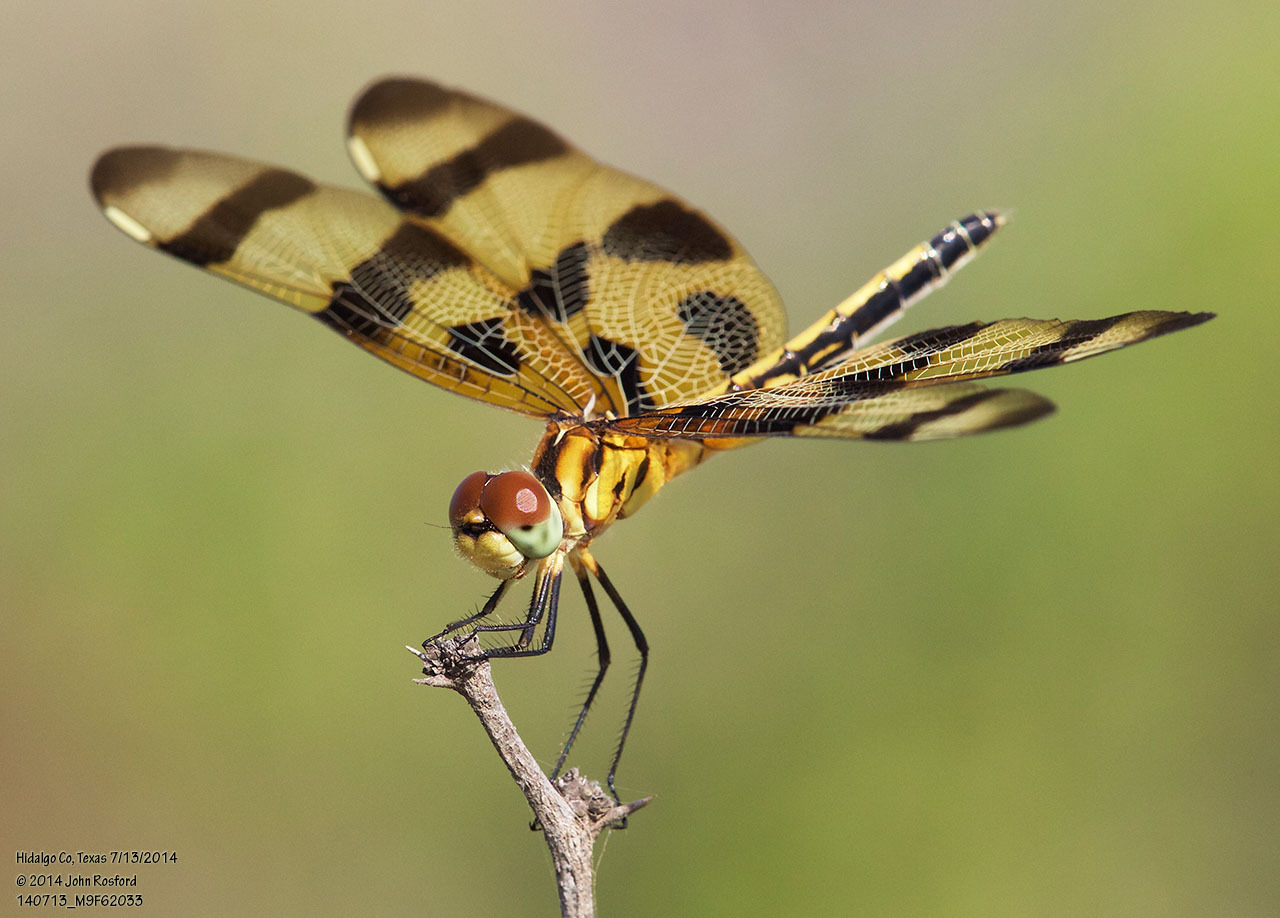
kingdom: Animalia
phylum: Arthropoda
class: Insecta
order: Odonata
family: Libellulidae
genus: Celithemis
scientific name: Celithemis eponina
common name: Halloween pennant
